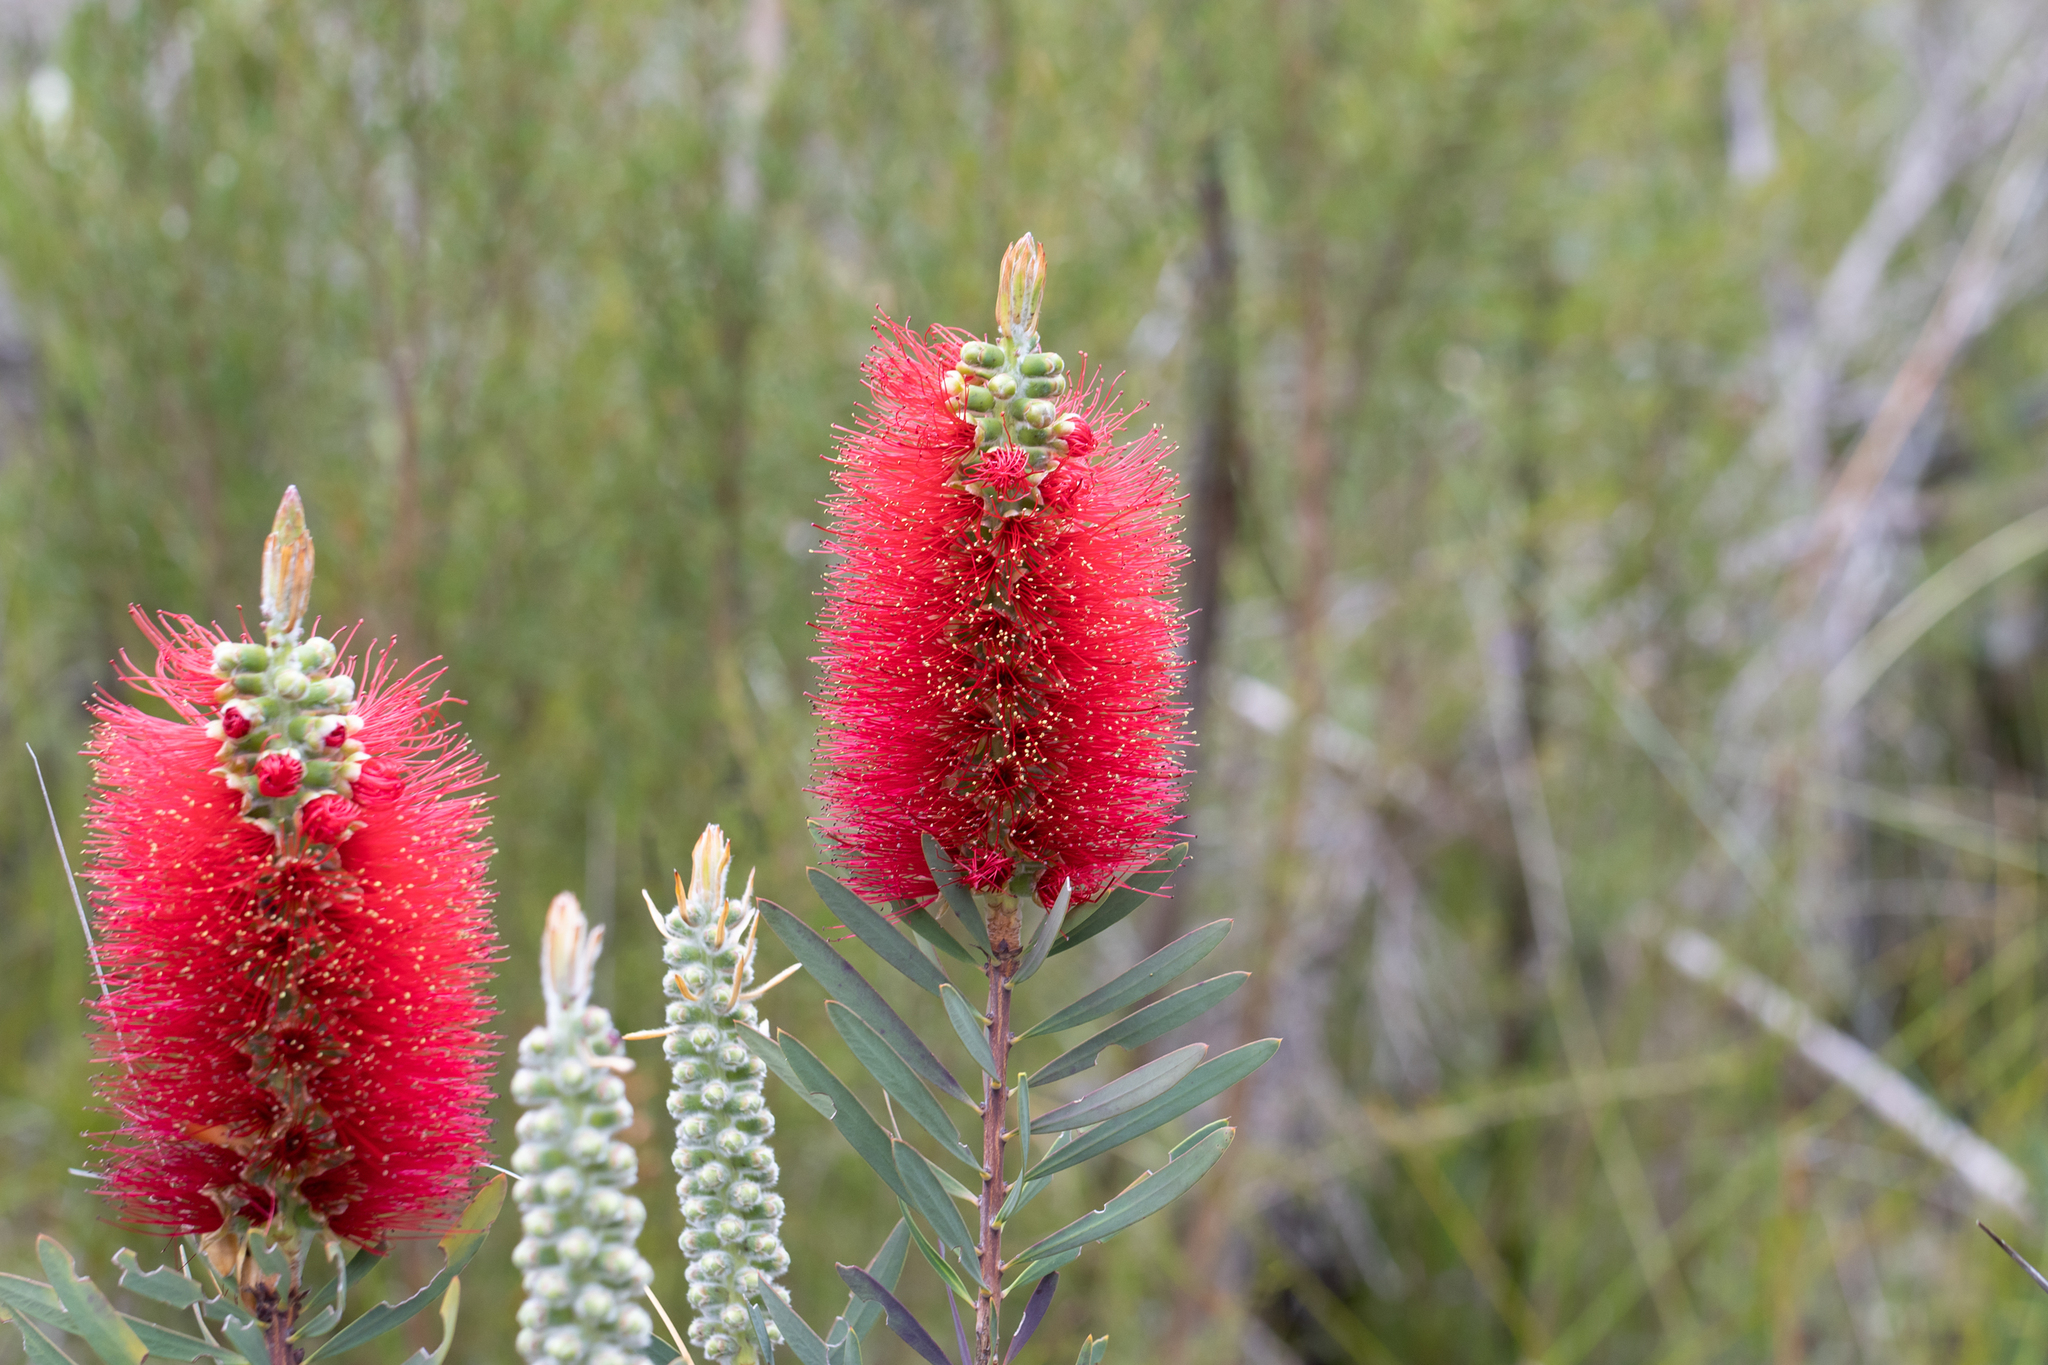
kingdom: Plantae
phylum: Tracheophyta
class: Magnoliopsida
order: Myrtales
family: Myrtaceae
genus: Melaleuca
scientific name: Melaleuca glauca
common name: Albany-bottlebrush
